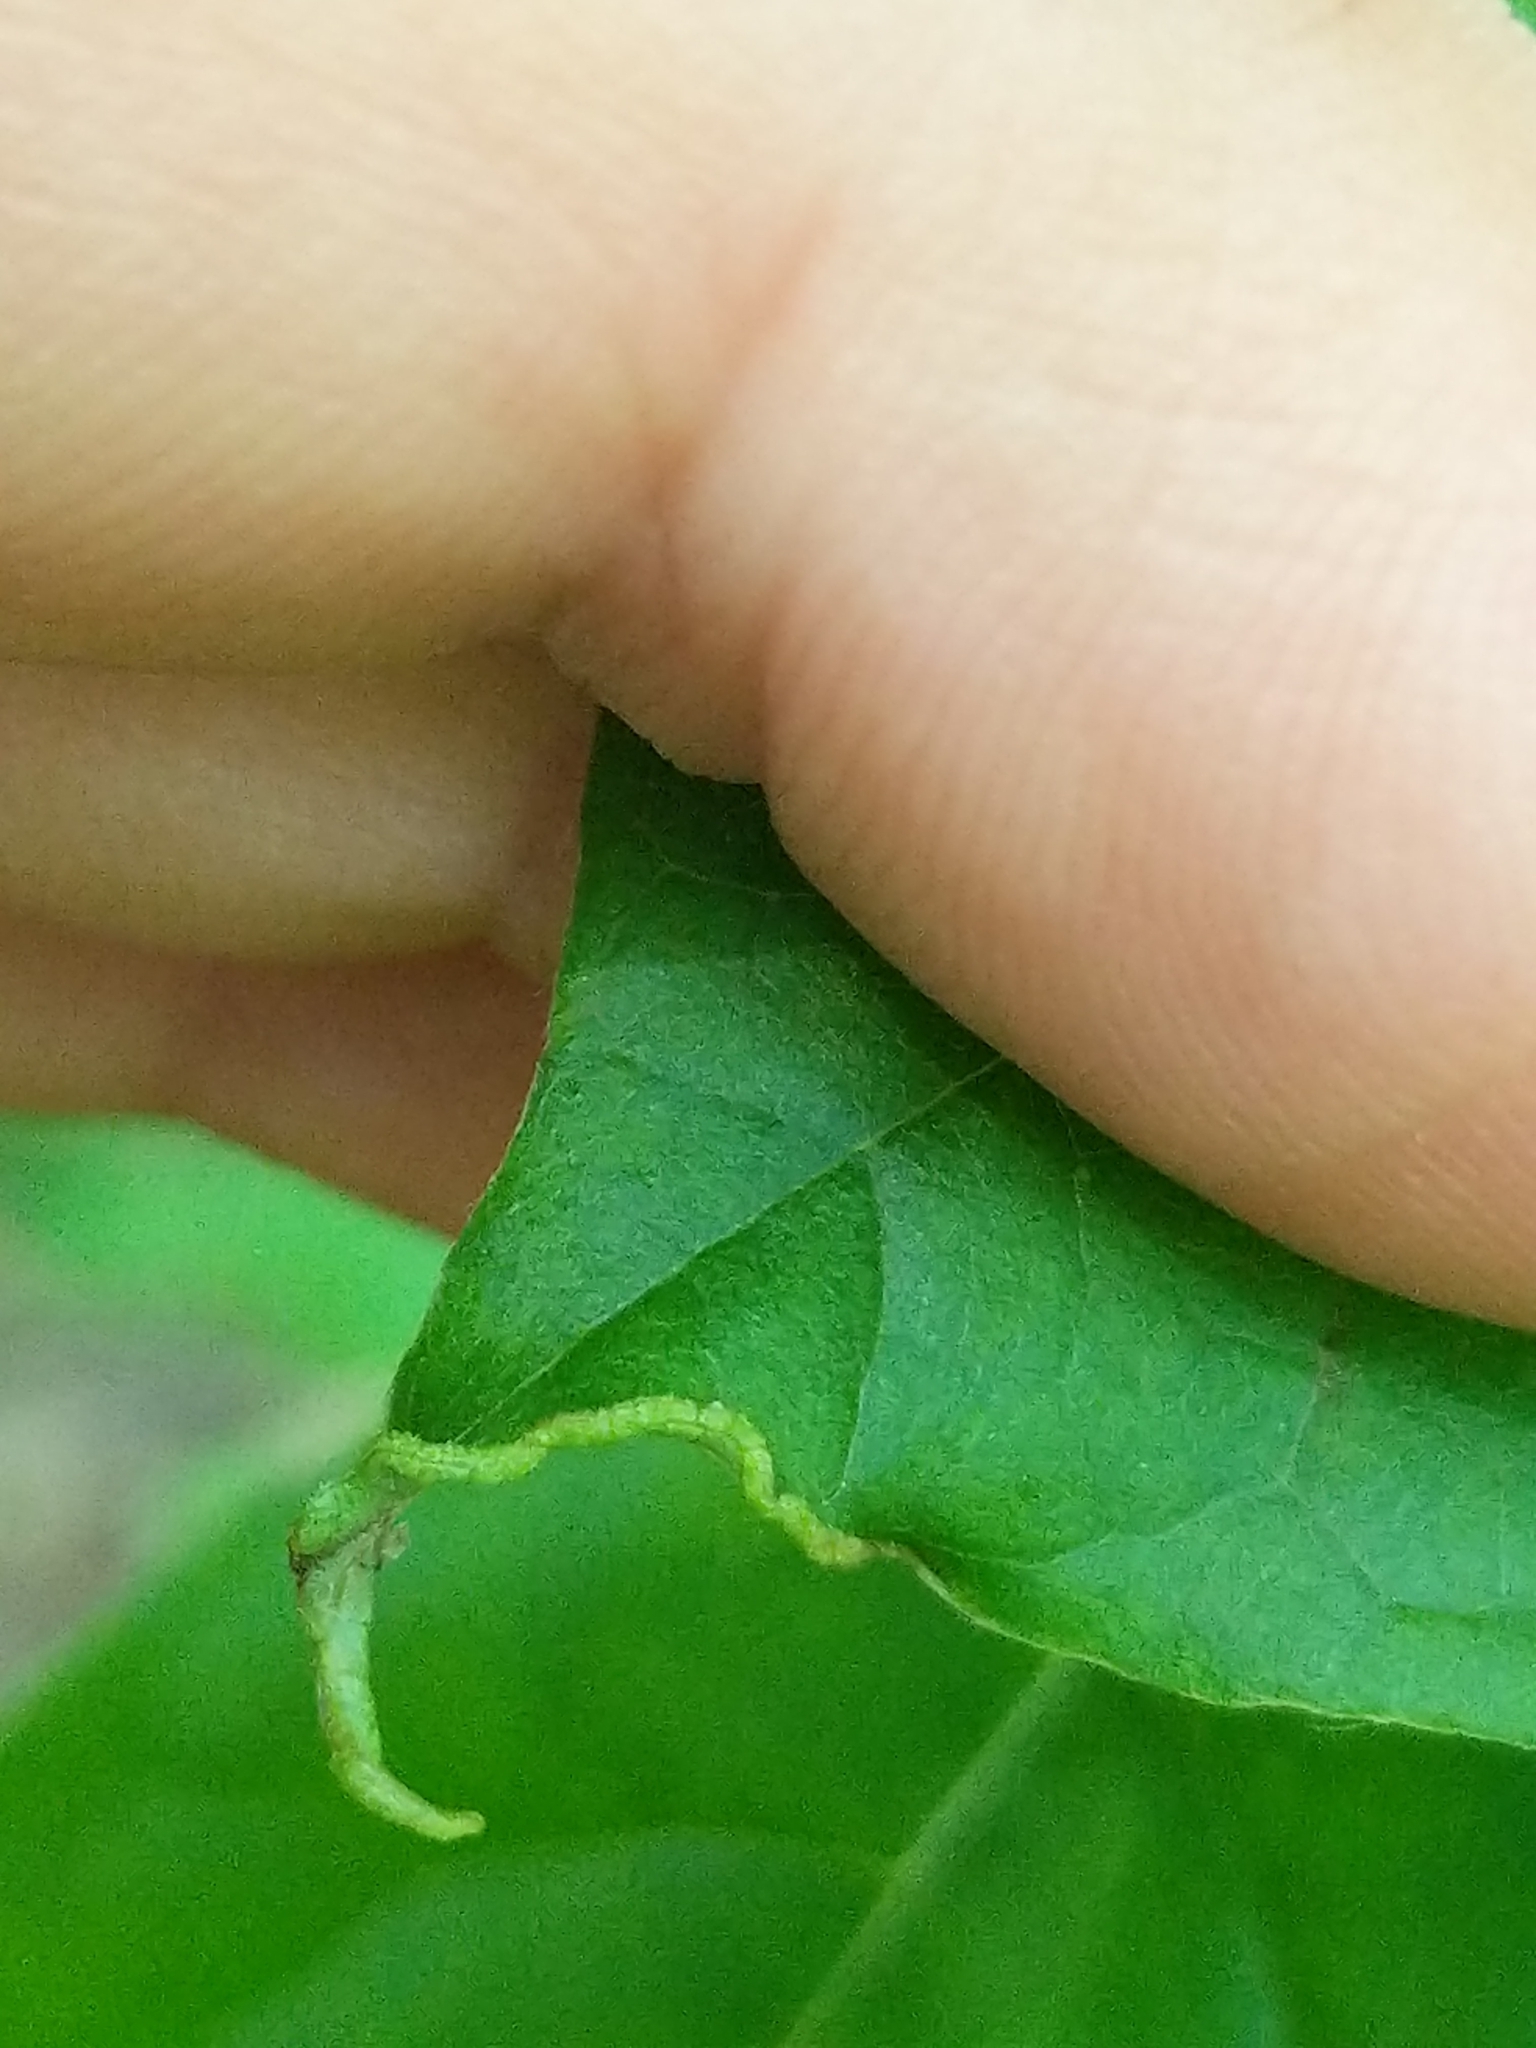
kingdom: Animalia
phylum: Arthropoda
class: Arachnida
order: Trombidiformes
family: Eriophyidae
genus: Aceria
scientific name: Aceria
